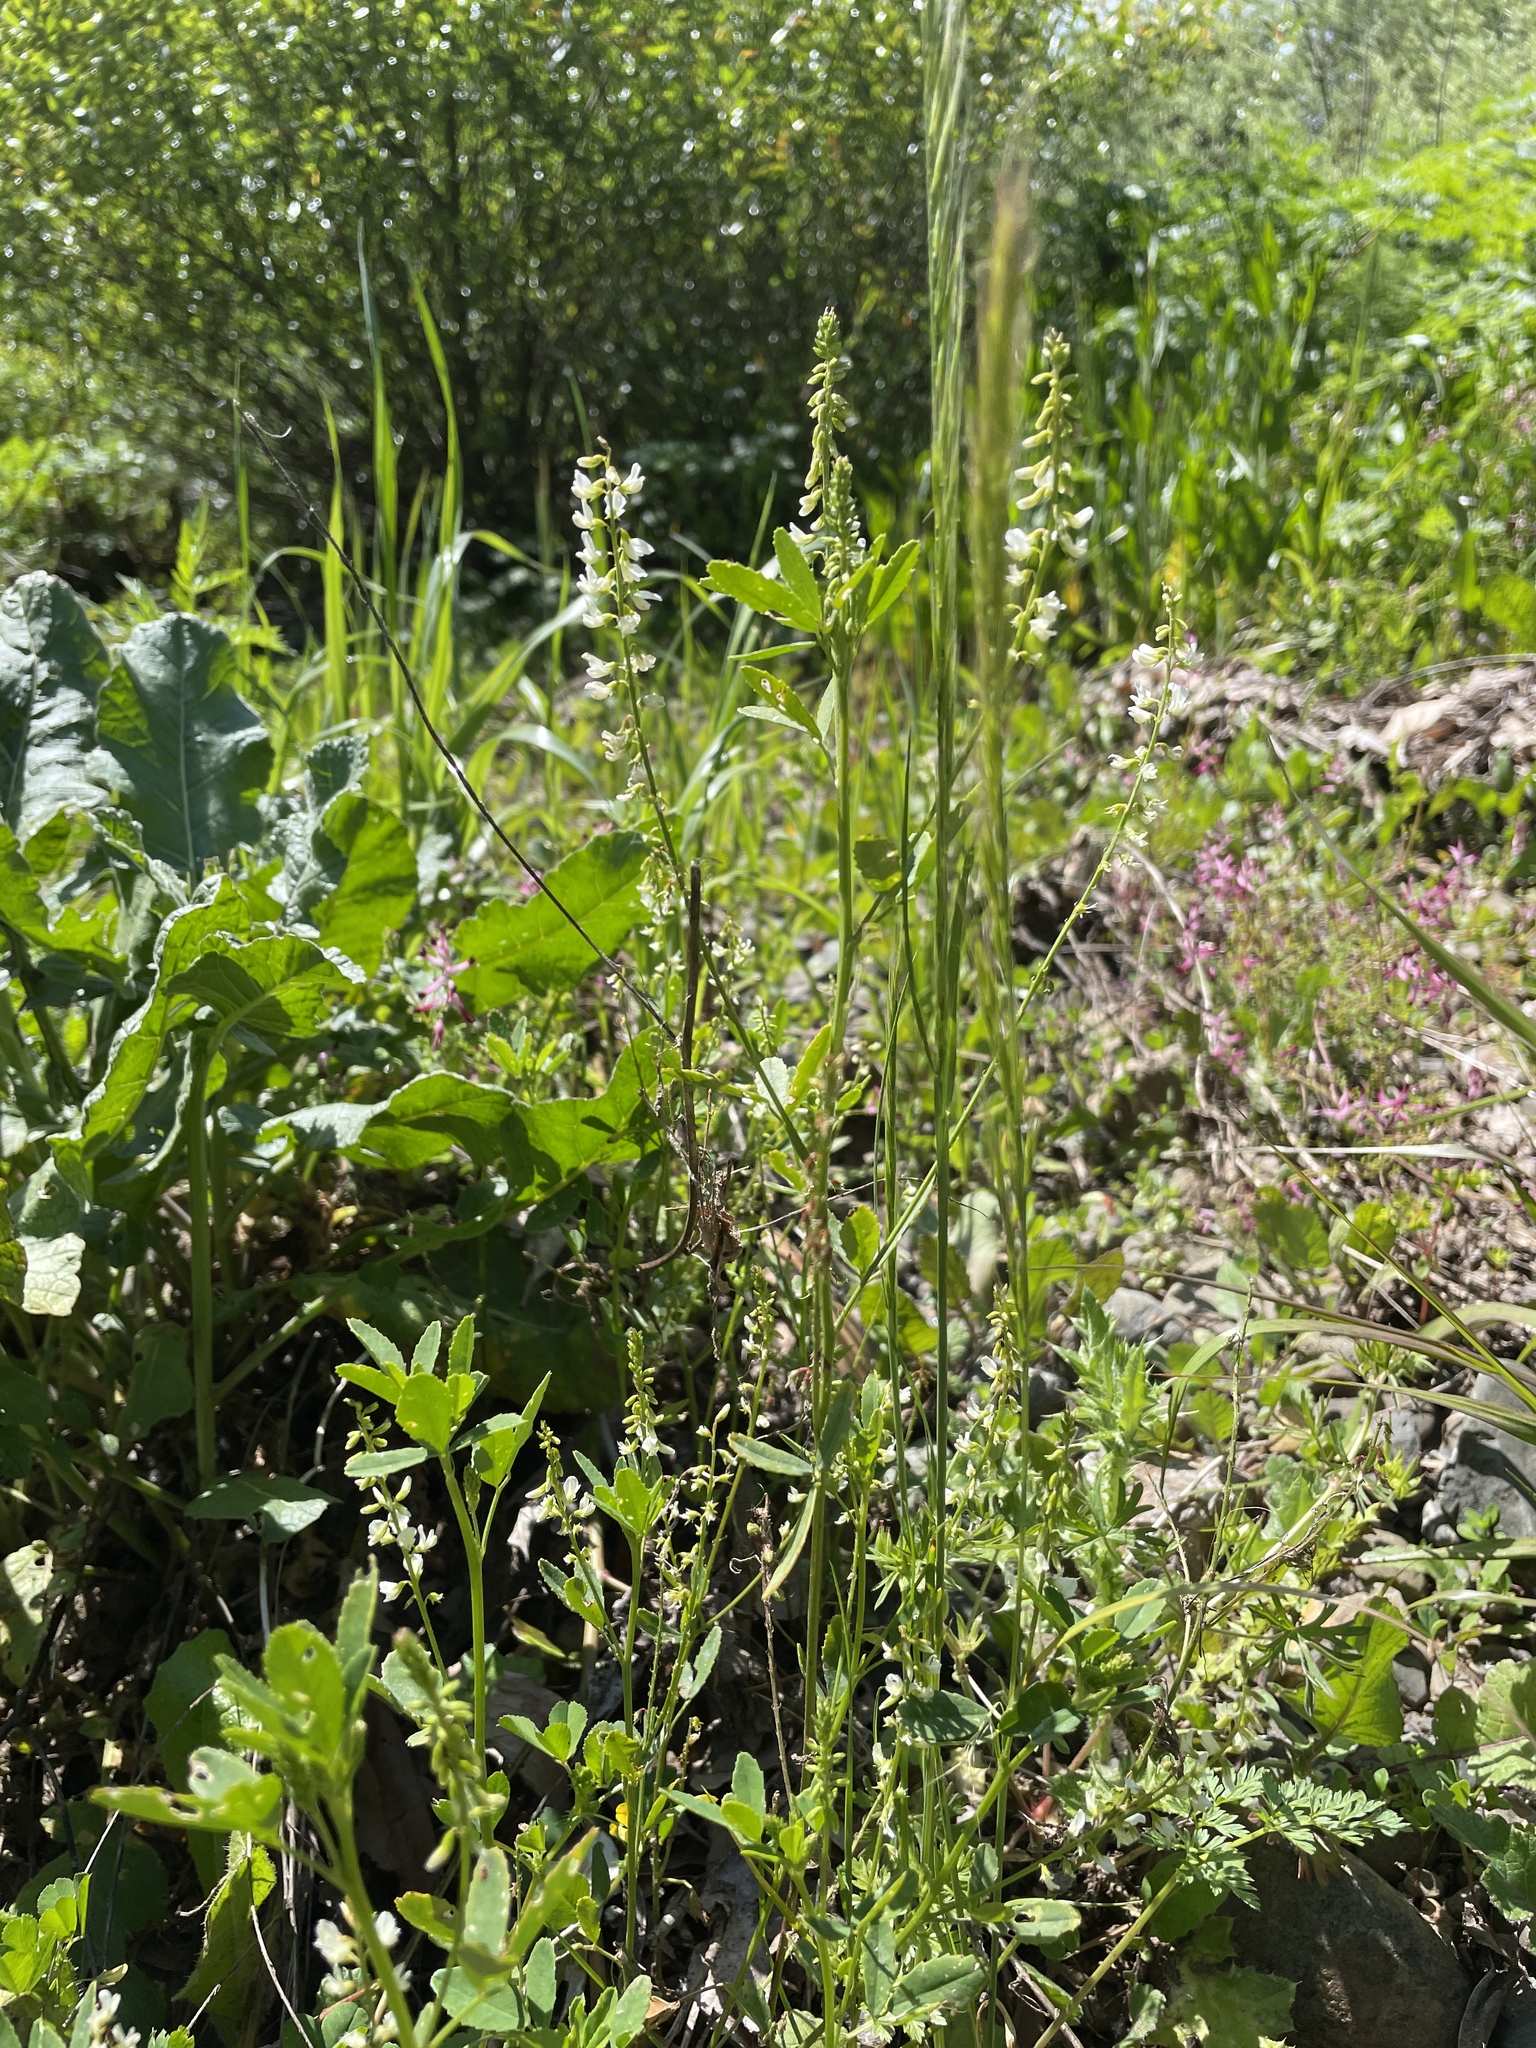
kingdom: Plantae
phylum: Tracheophyta
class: Magnoliopsida
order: Fabales
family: Fabaceae
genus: Melilotus
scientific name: Melilotus albus
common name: White melilot
